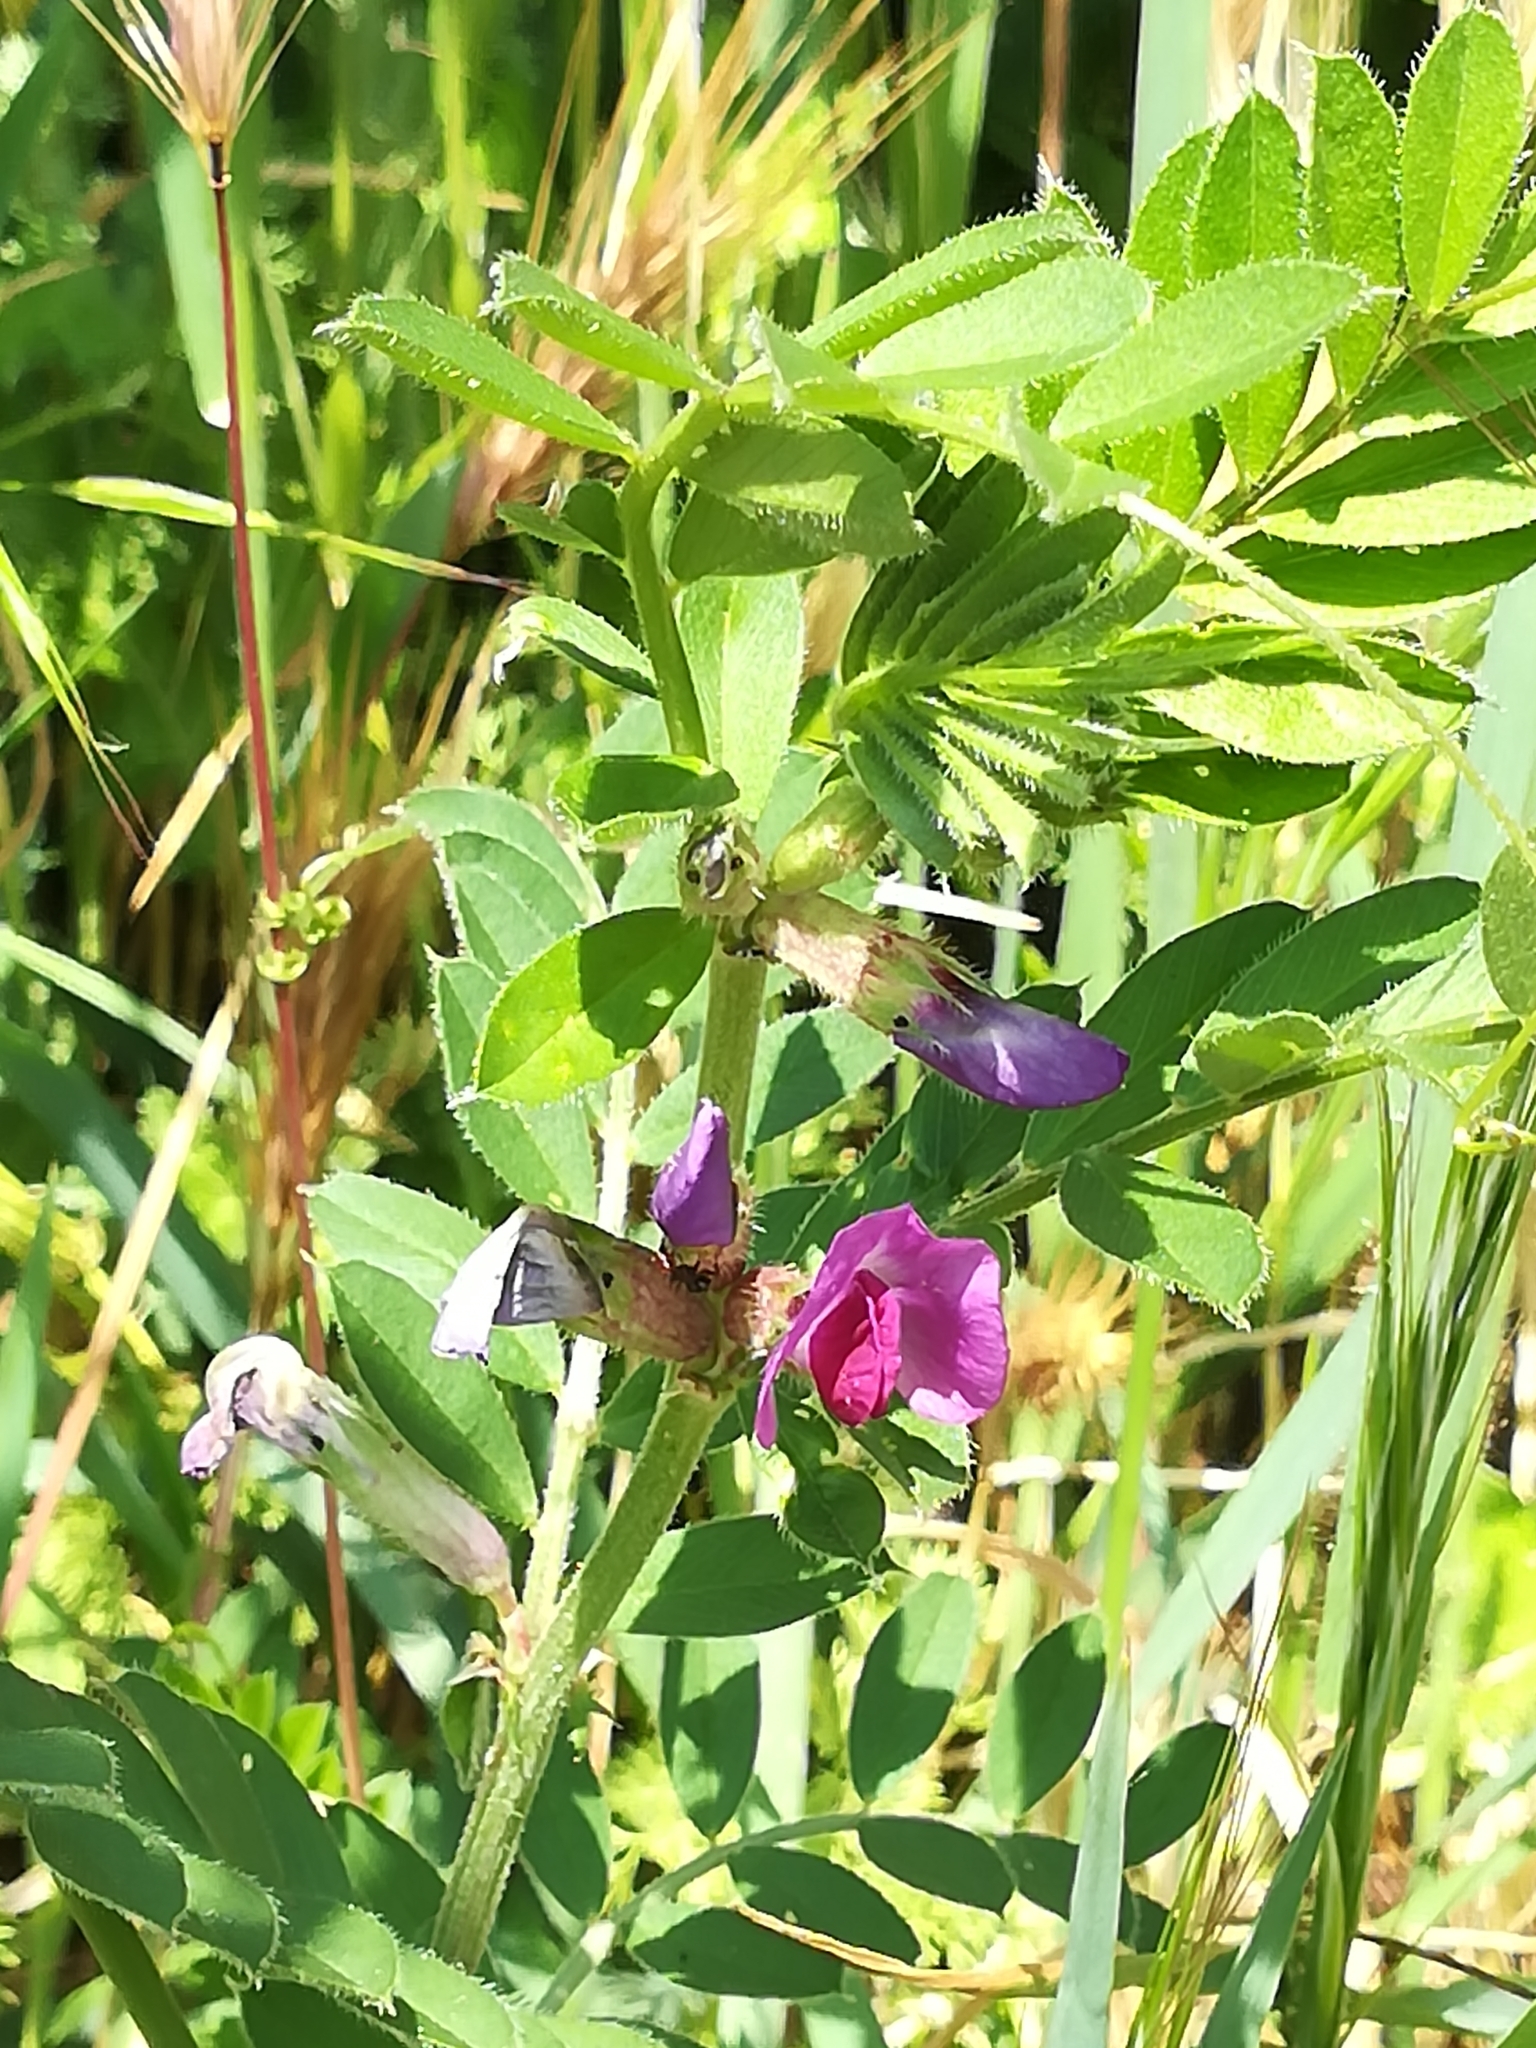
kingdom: Plantae
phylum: Tracheophyta
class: Magnoliopsida
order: Fabales
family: Fabaceae
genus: Vicia
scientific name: Vicia sativa
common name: Garden vetch
